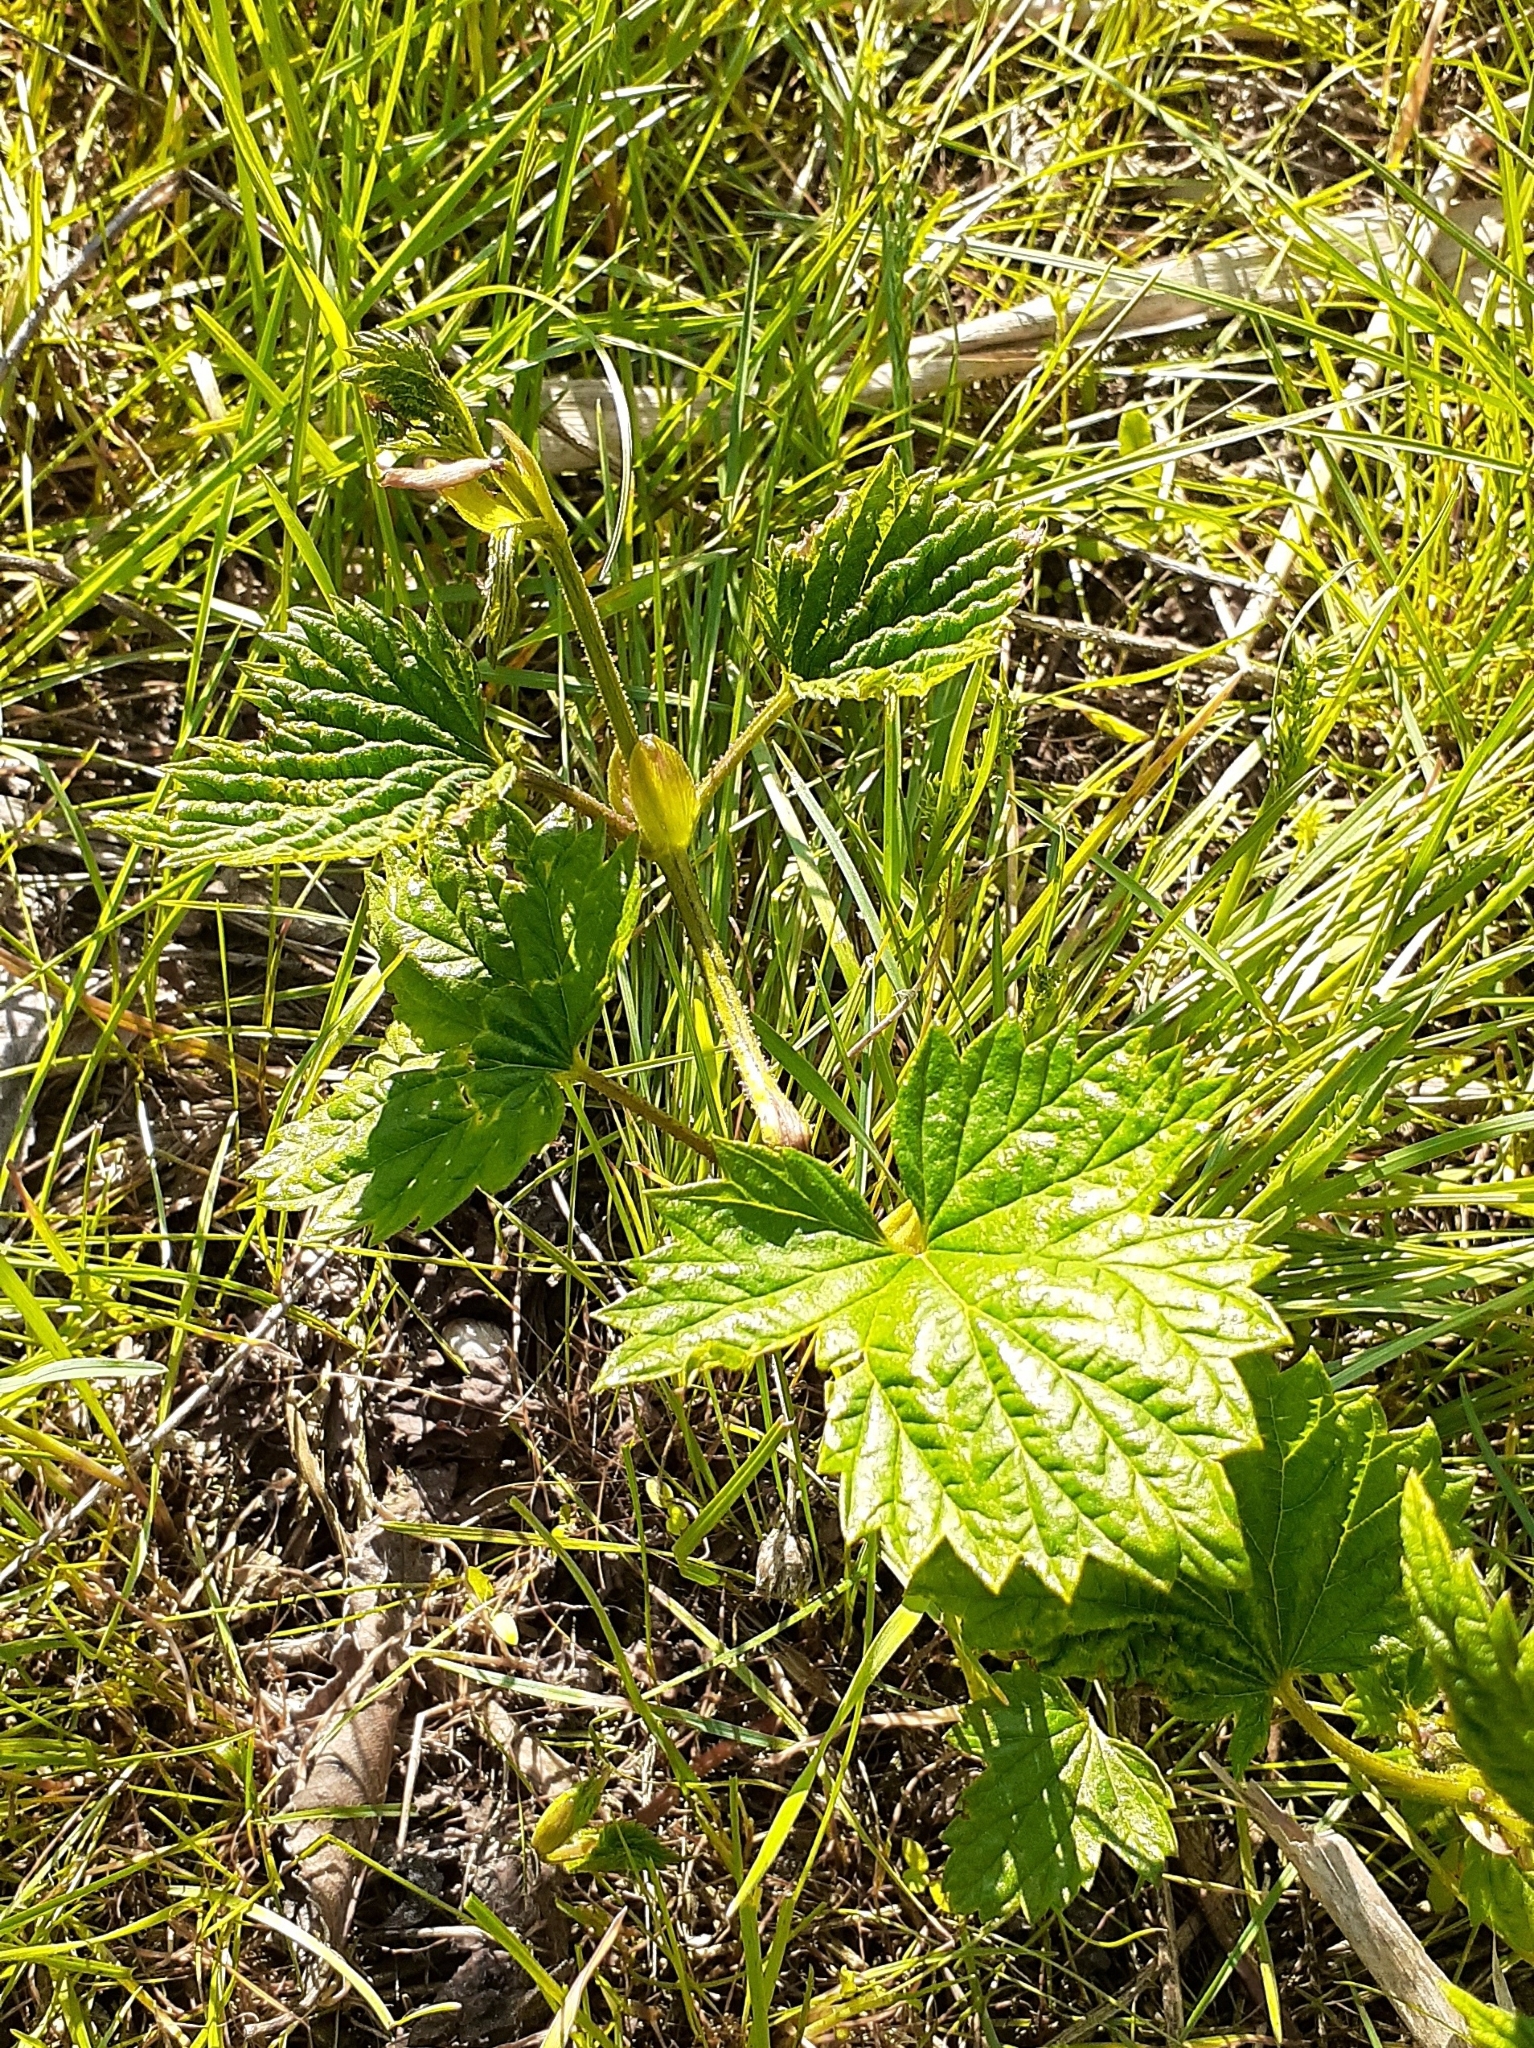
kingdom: Plantae
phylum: Tracheophyta
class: Magnoliopsida
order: Rosales
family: Cannabaceae
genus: Humulus
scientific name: Humulus lupulus
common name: Hop
